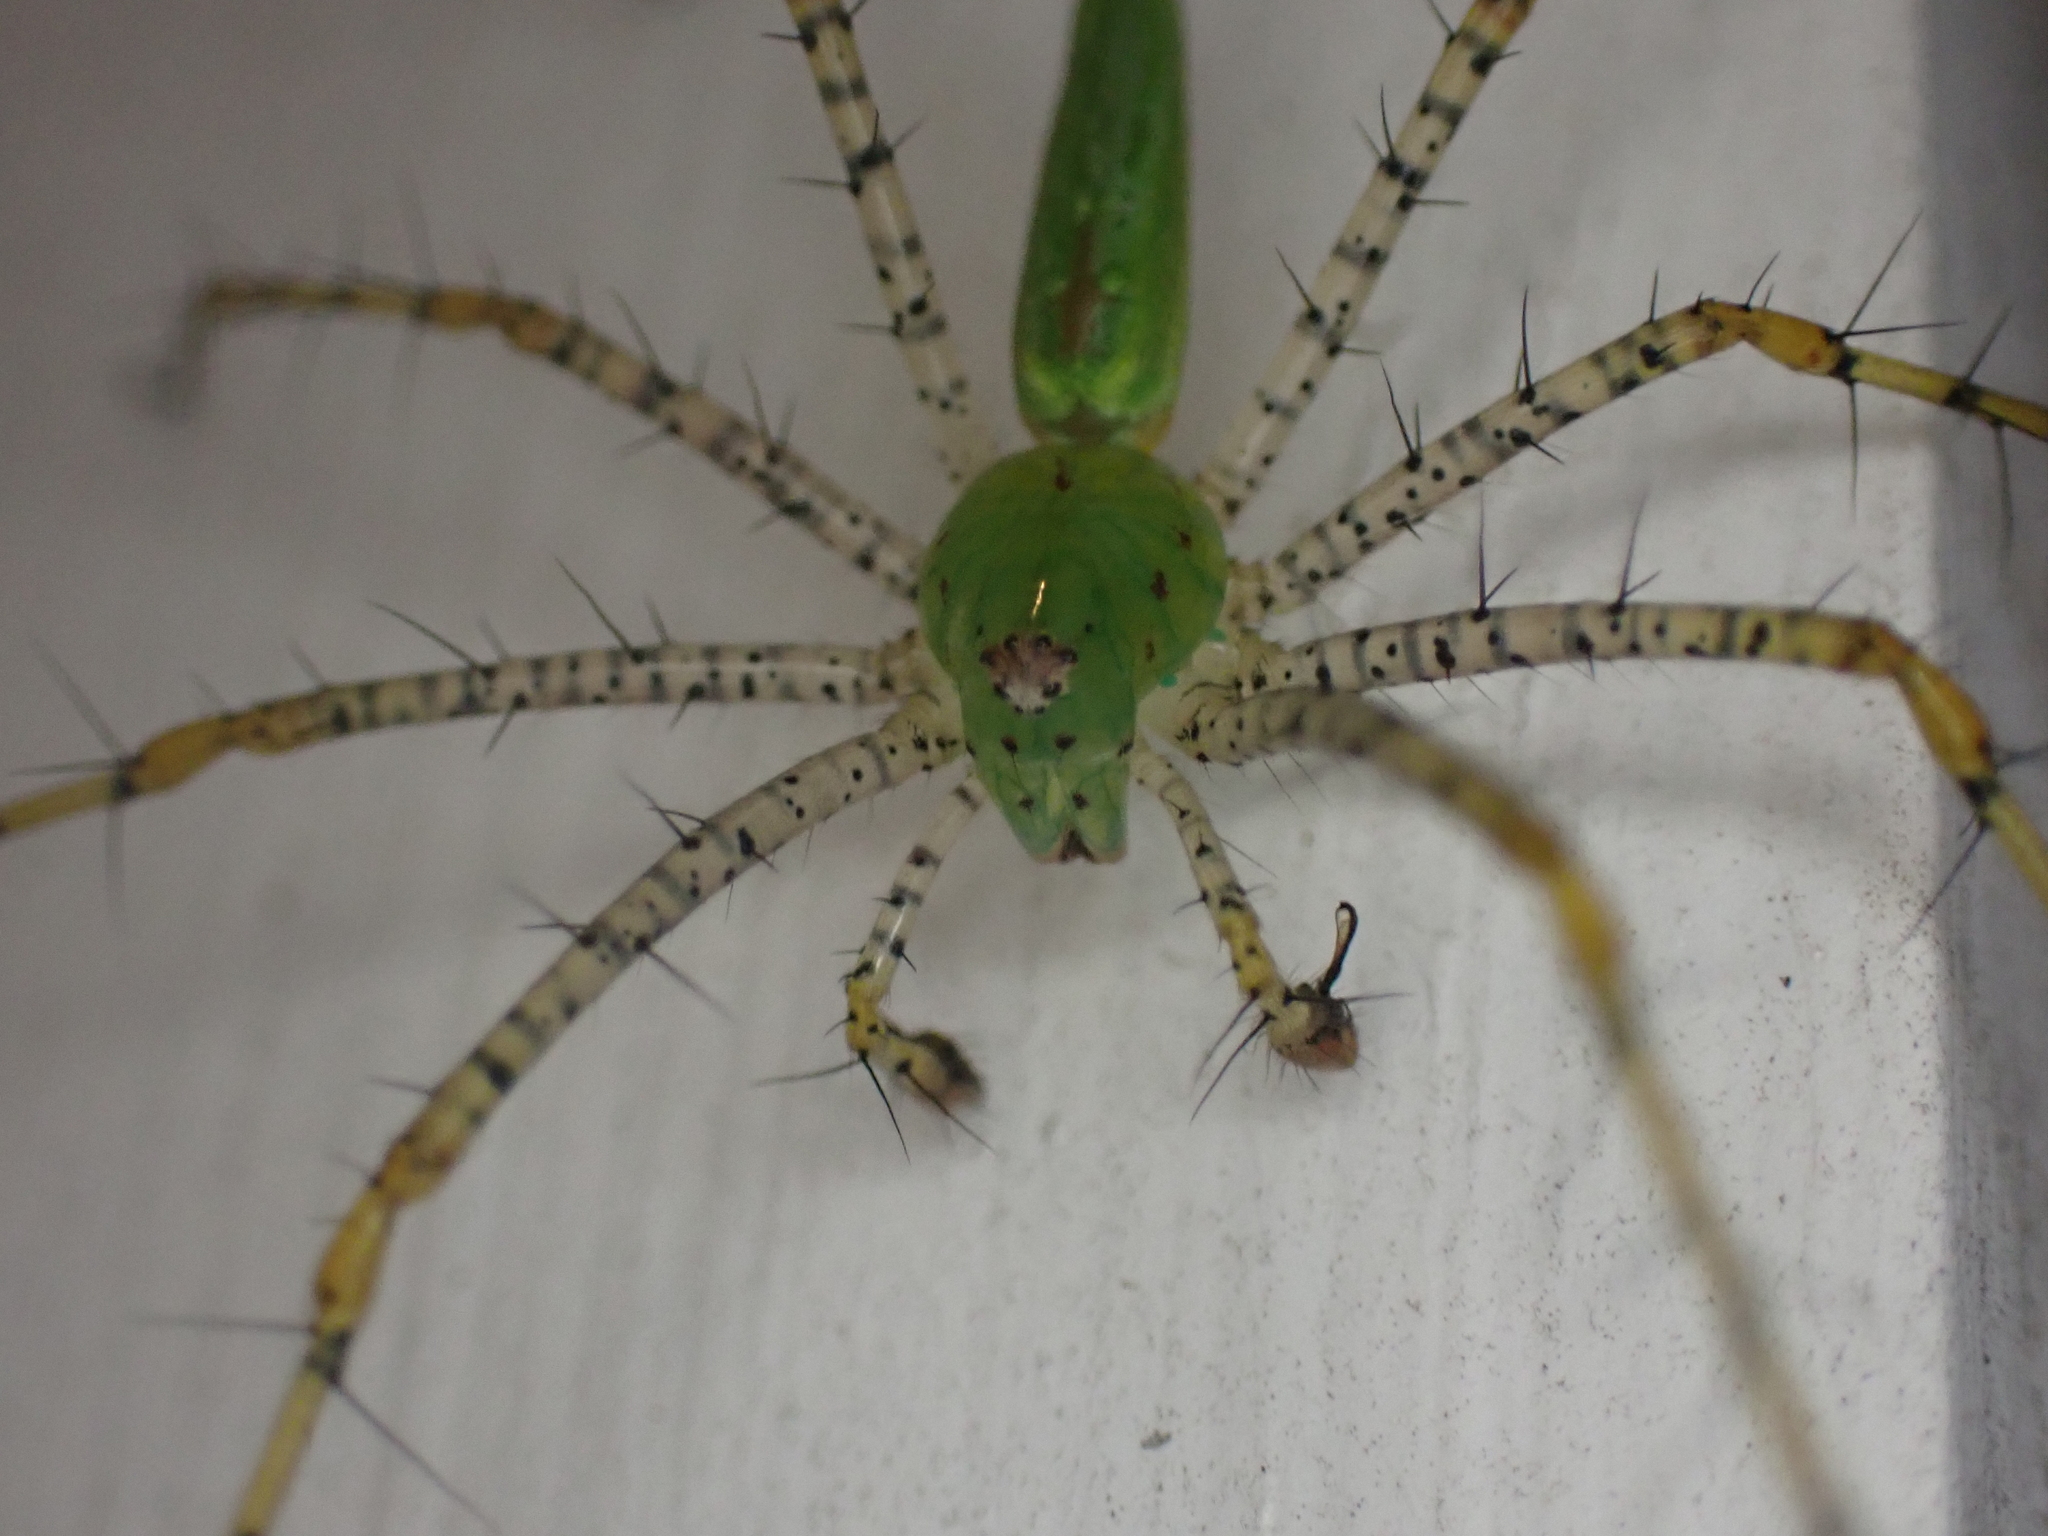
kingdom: Animalia
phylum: Arthropoda
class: Arachnida
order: Araneae
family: Oxyopidae
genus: Peucetia
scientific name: Peucetia viridans
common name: Lynx spiders
